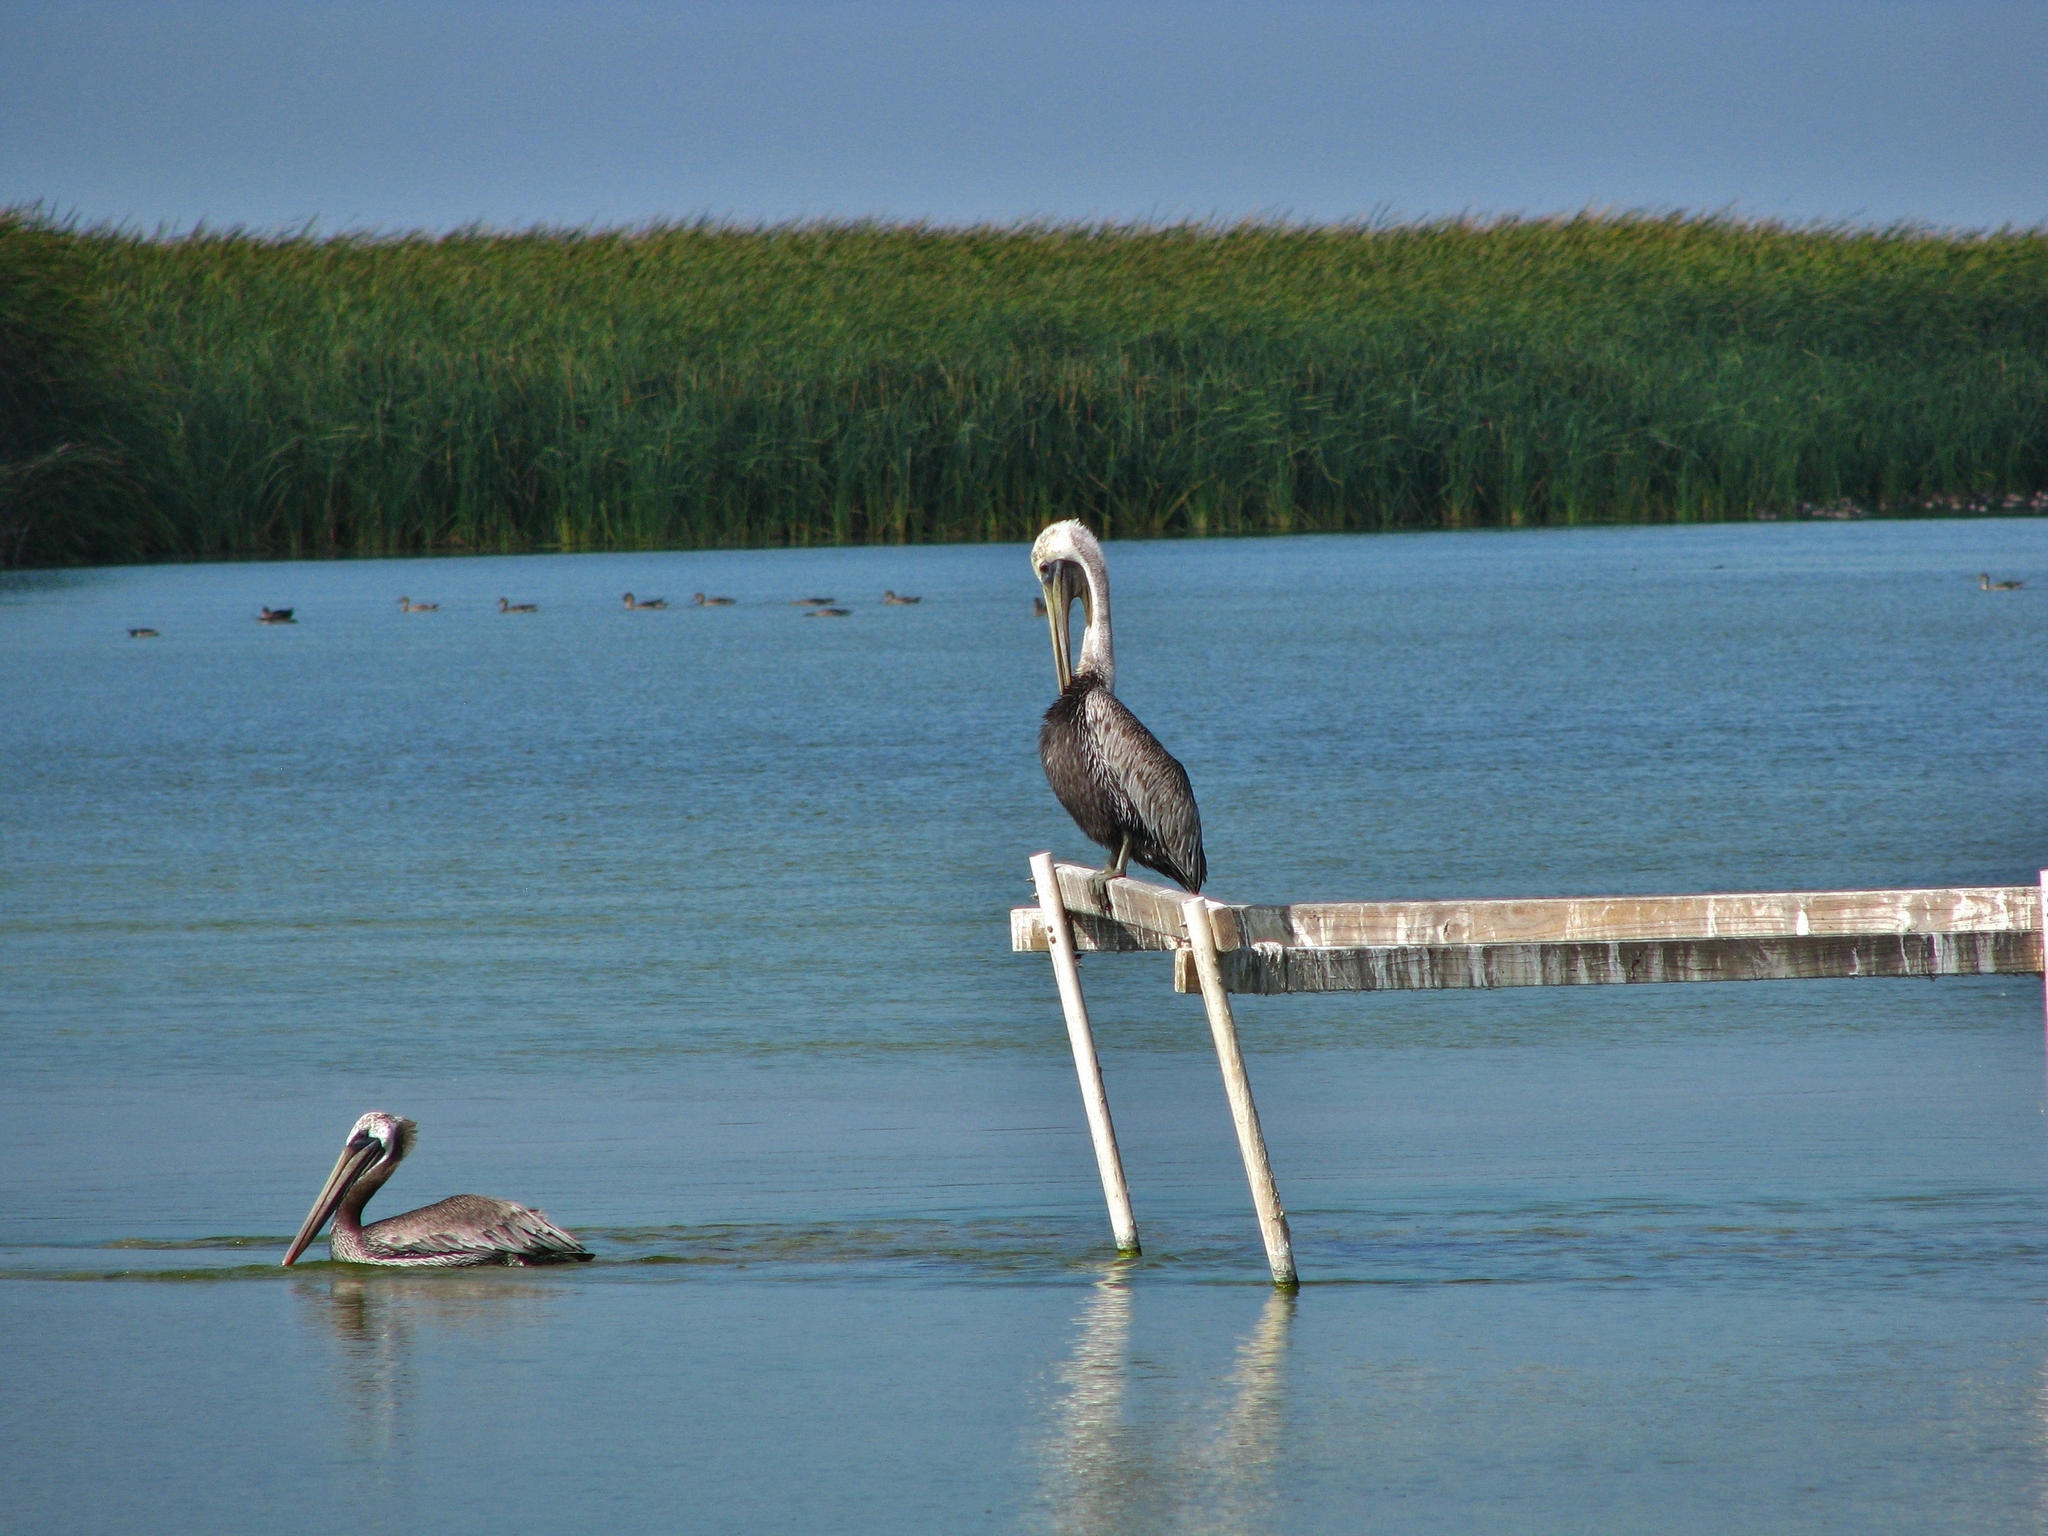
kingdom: Animalia
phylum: Chordata
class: Aves
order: Pelecaniformes
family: Pelecanidae
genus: Pelecanus
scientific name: Pelecanus occidentalis
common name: Brown pelican
